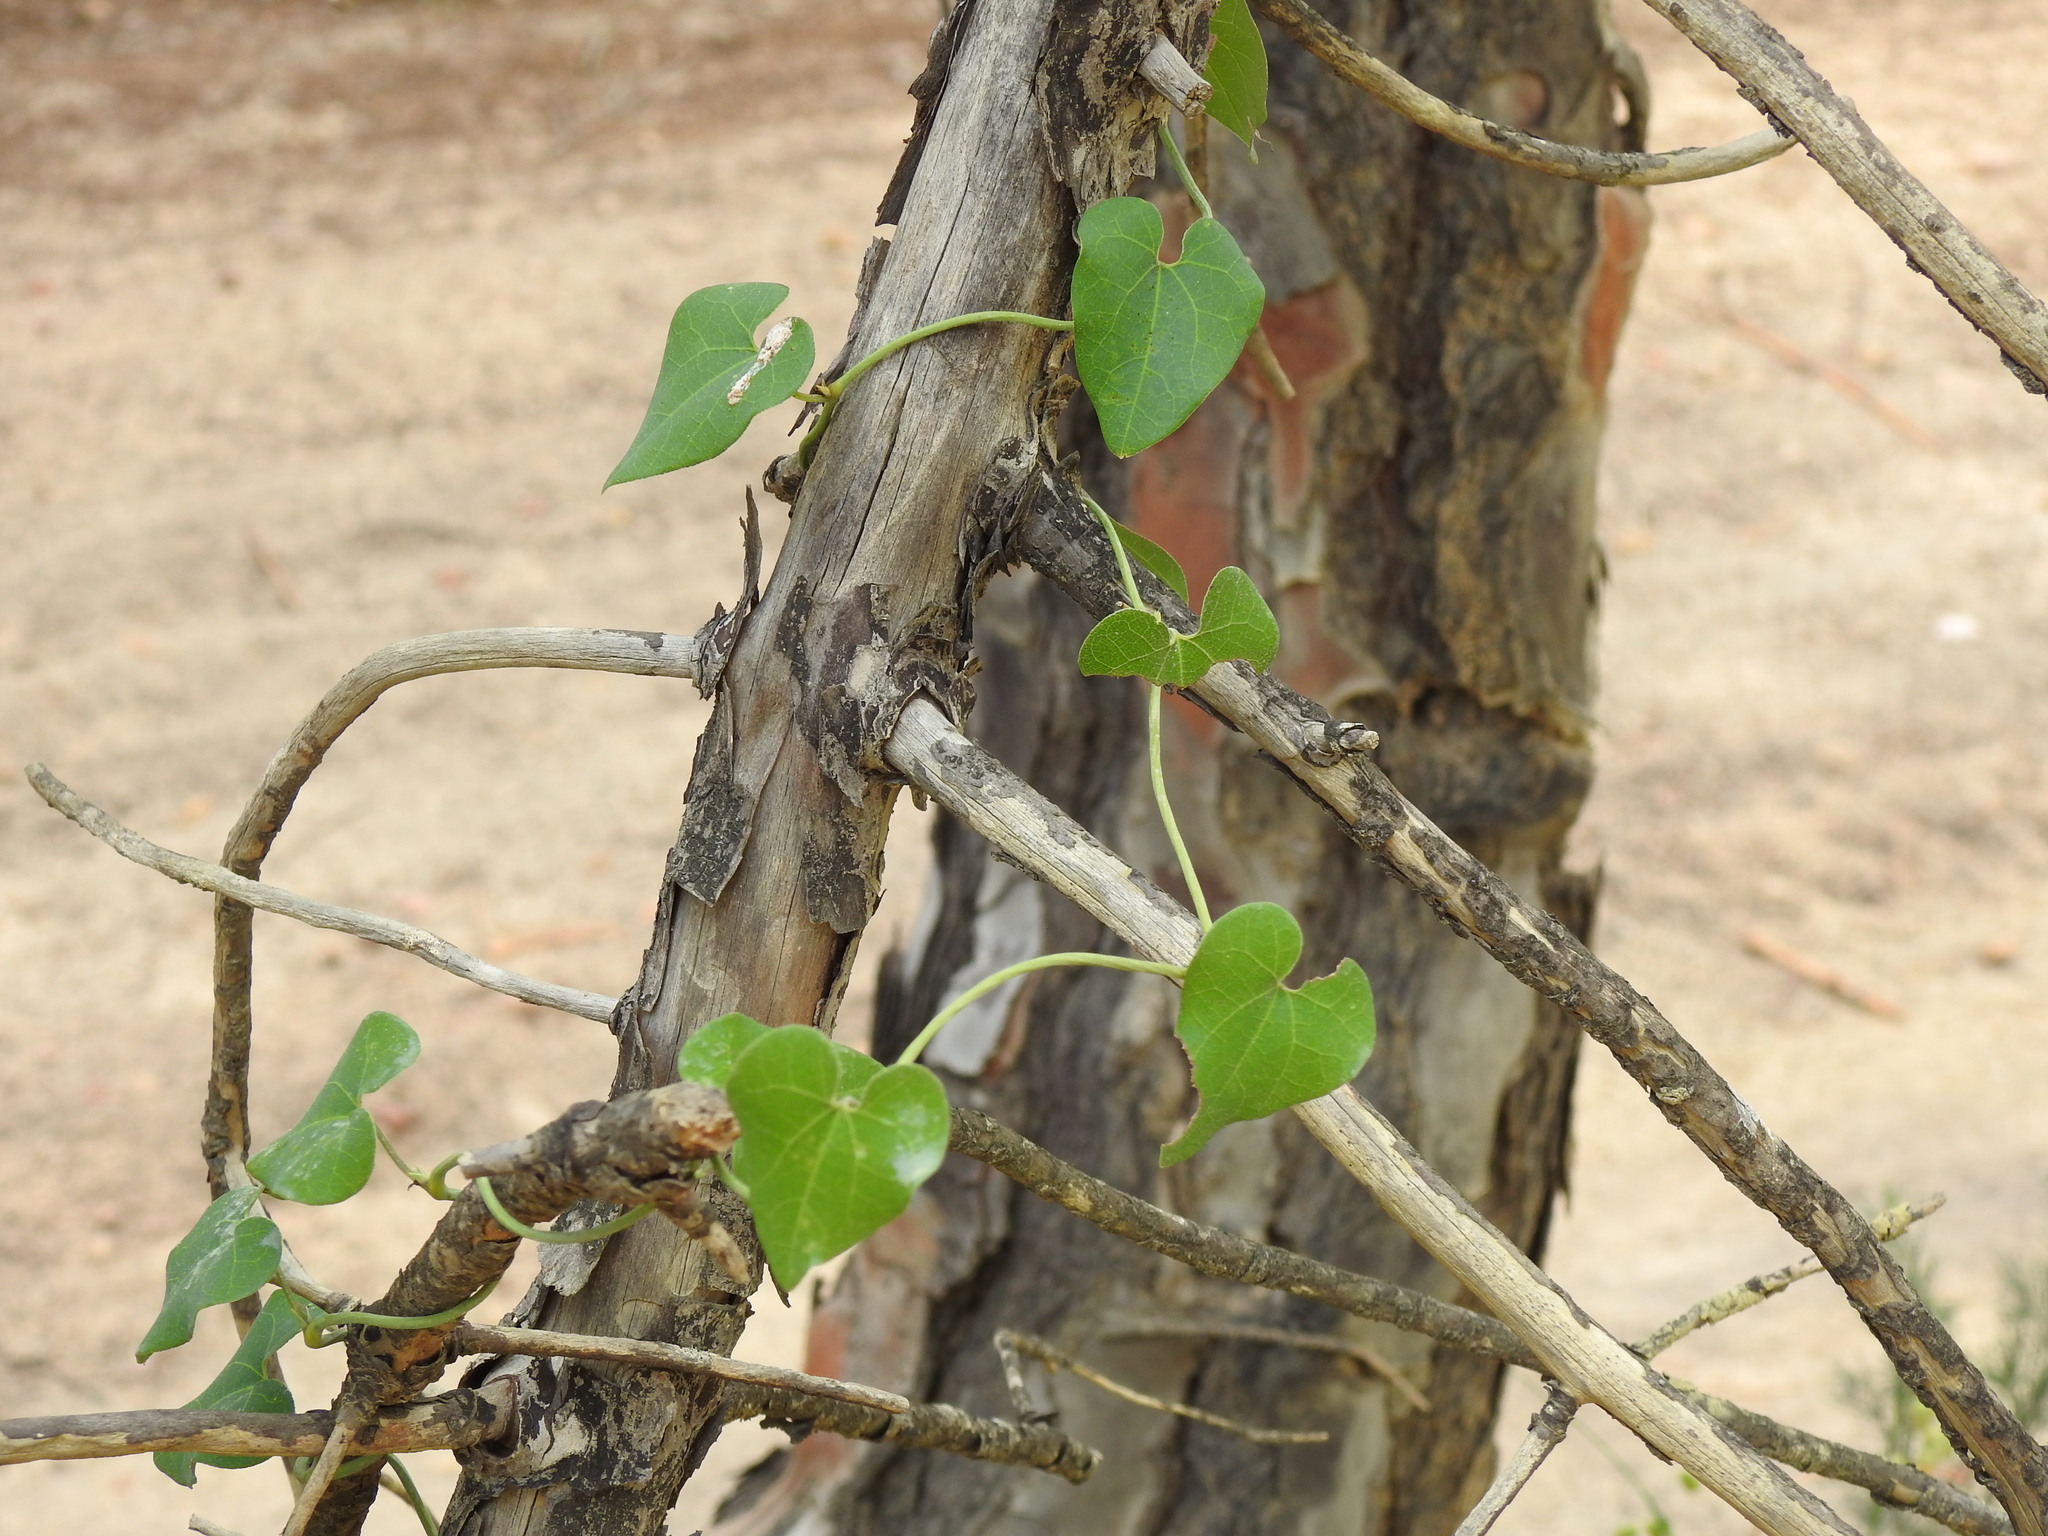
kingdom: Plantae
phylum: Tracheophyta
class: Magnoliopsida
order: Piperales
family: Aristolochiaceae
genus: Aristolochia
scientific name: Aristolochia baetica
